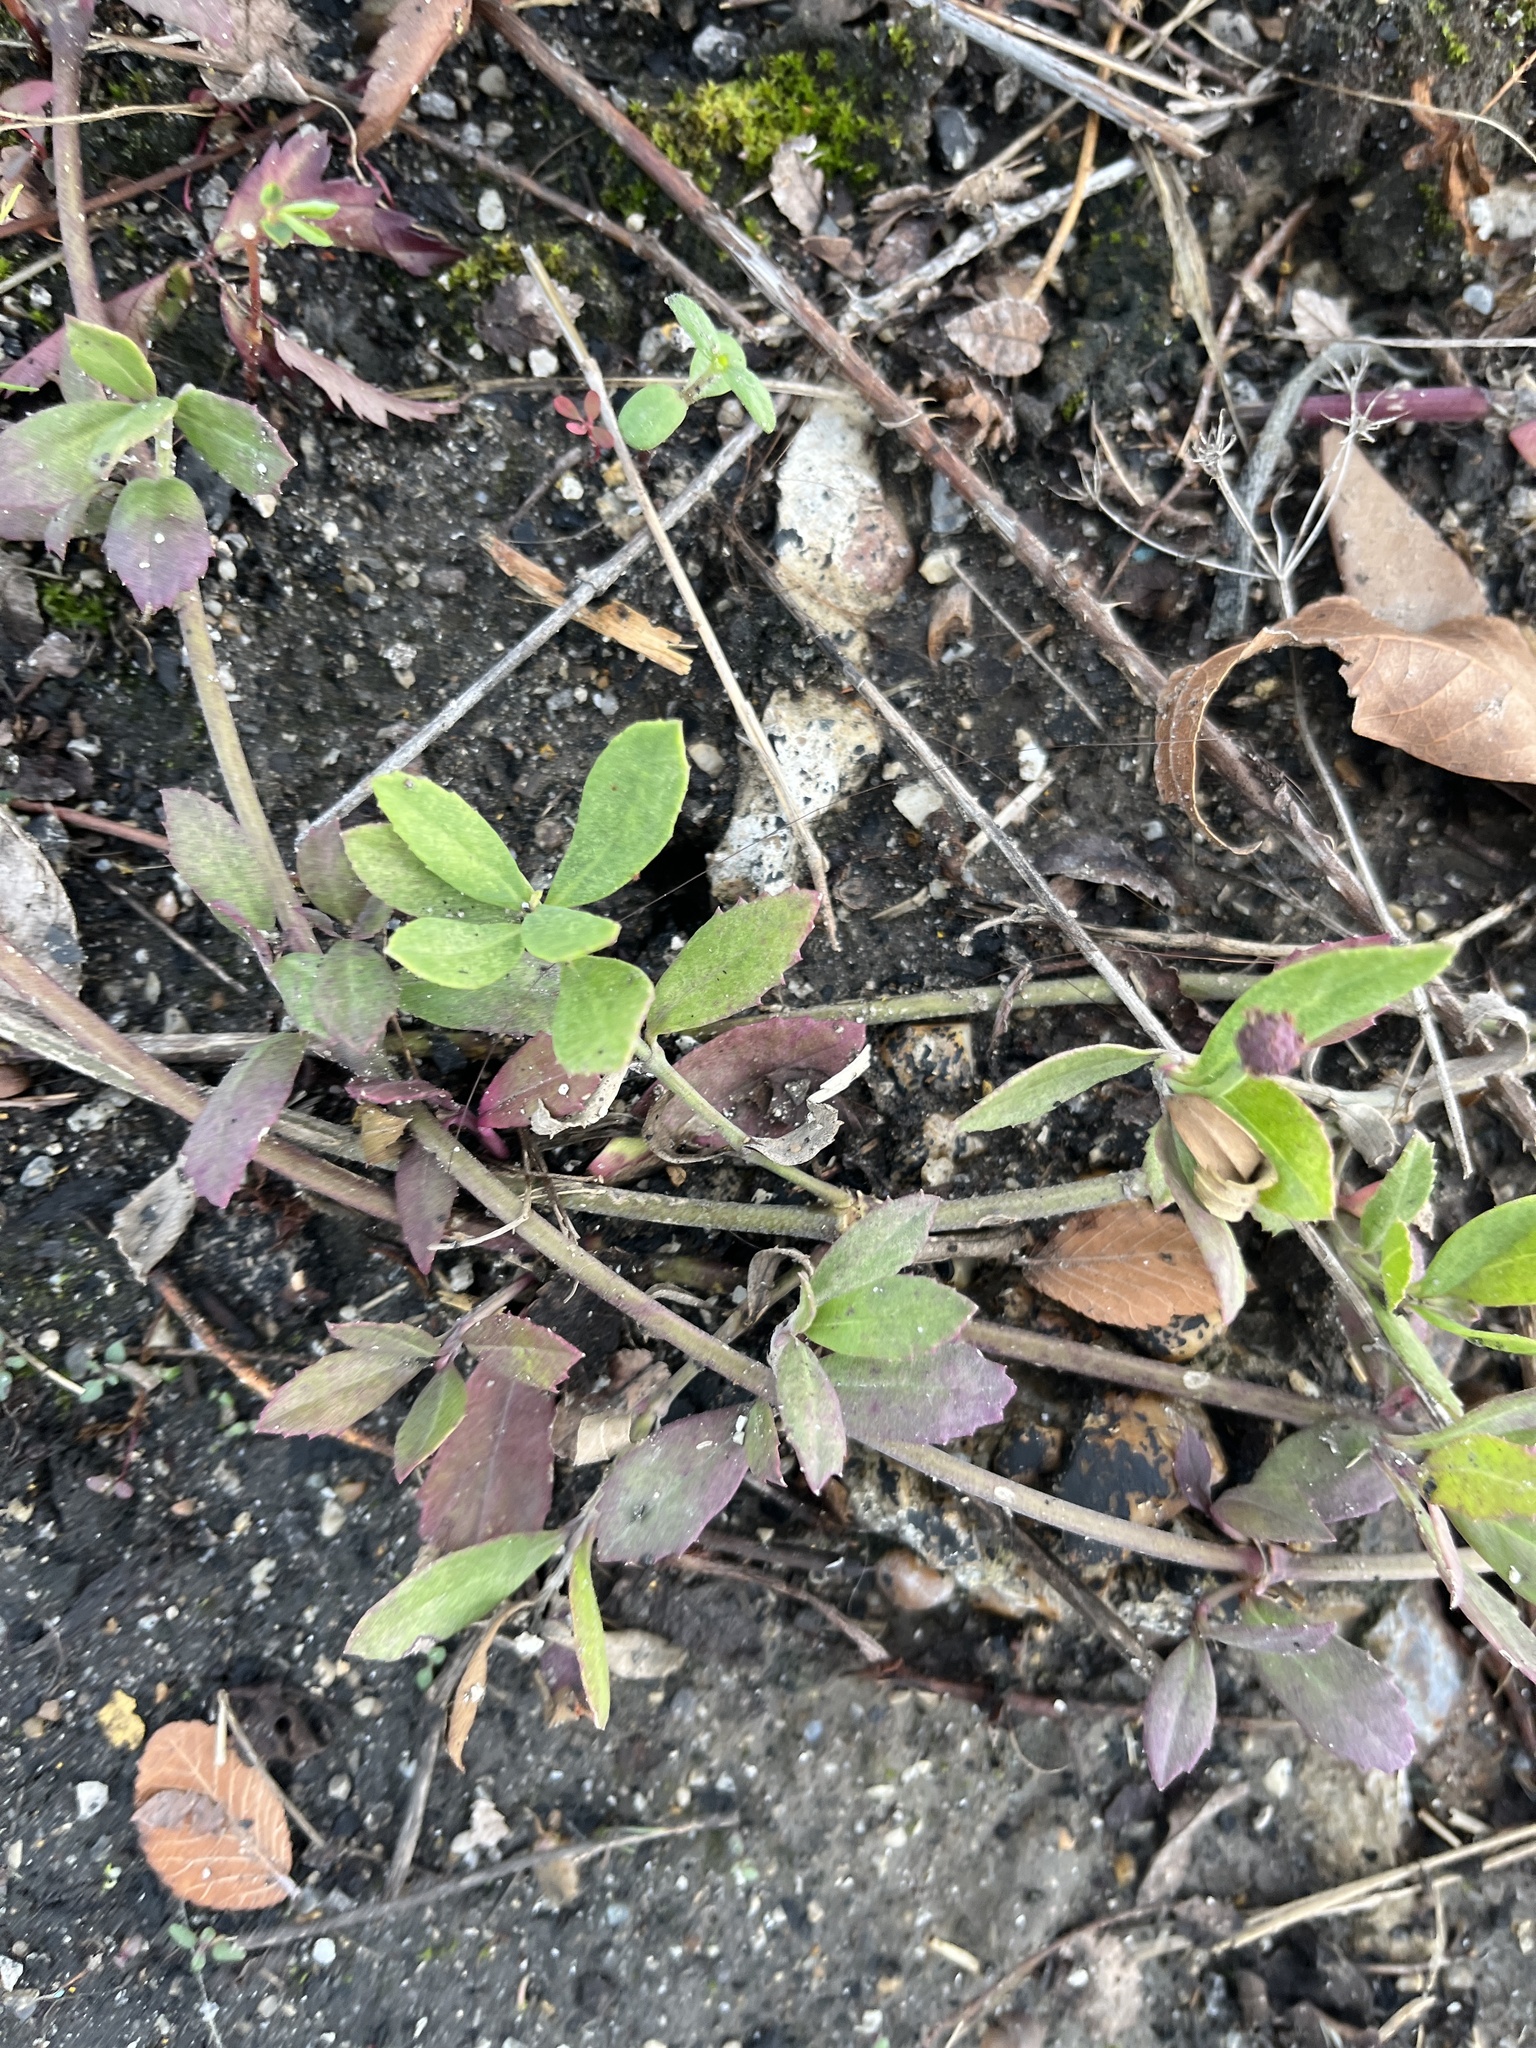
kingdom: Plantae
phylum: Tracheophyta
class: Magnoliopsida
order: Lamiales
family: Verbenaceae
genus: Phyla
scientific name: Phyla nodiflora
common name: Frogfruit
